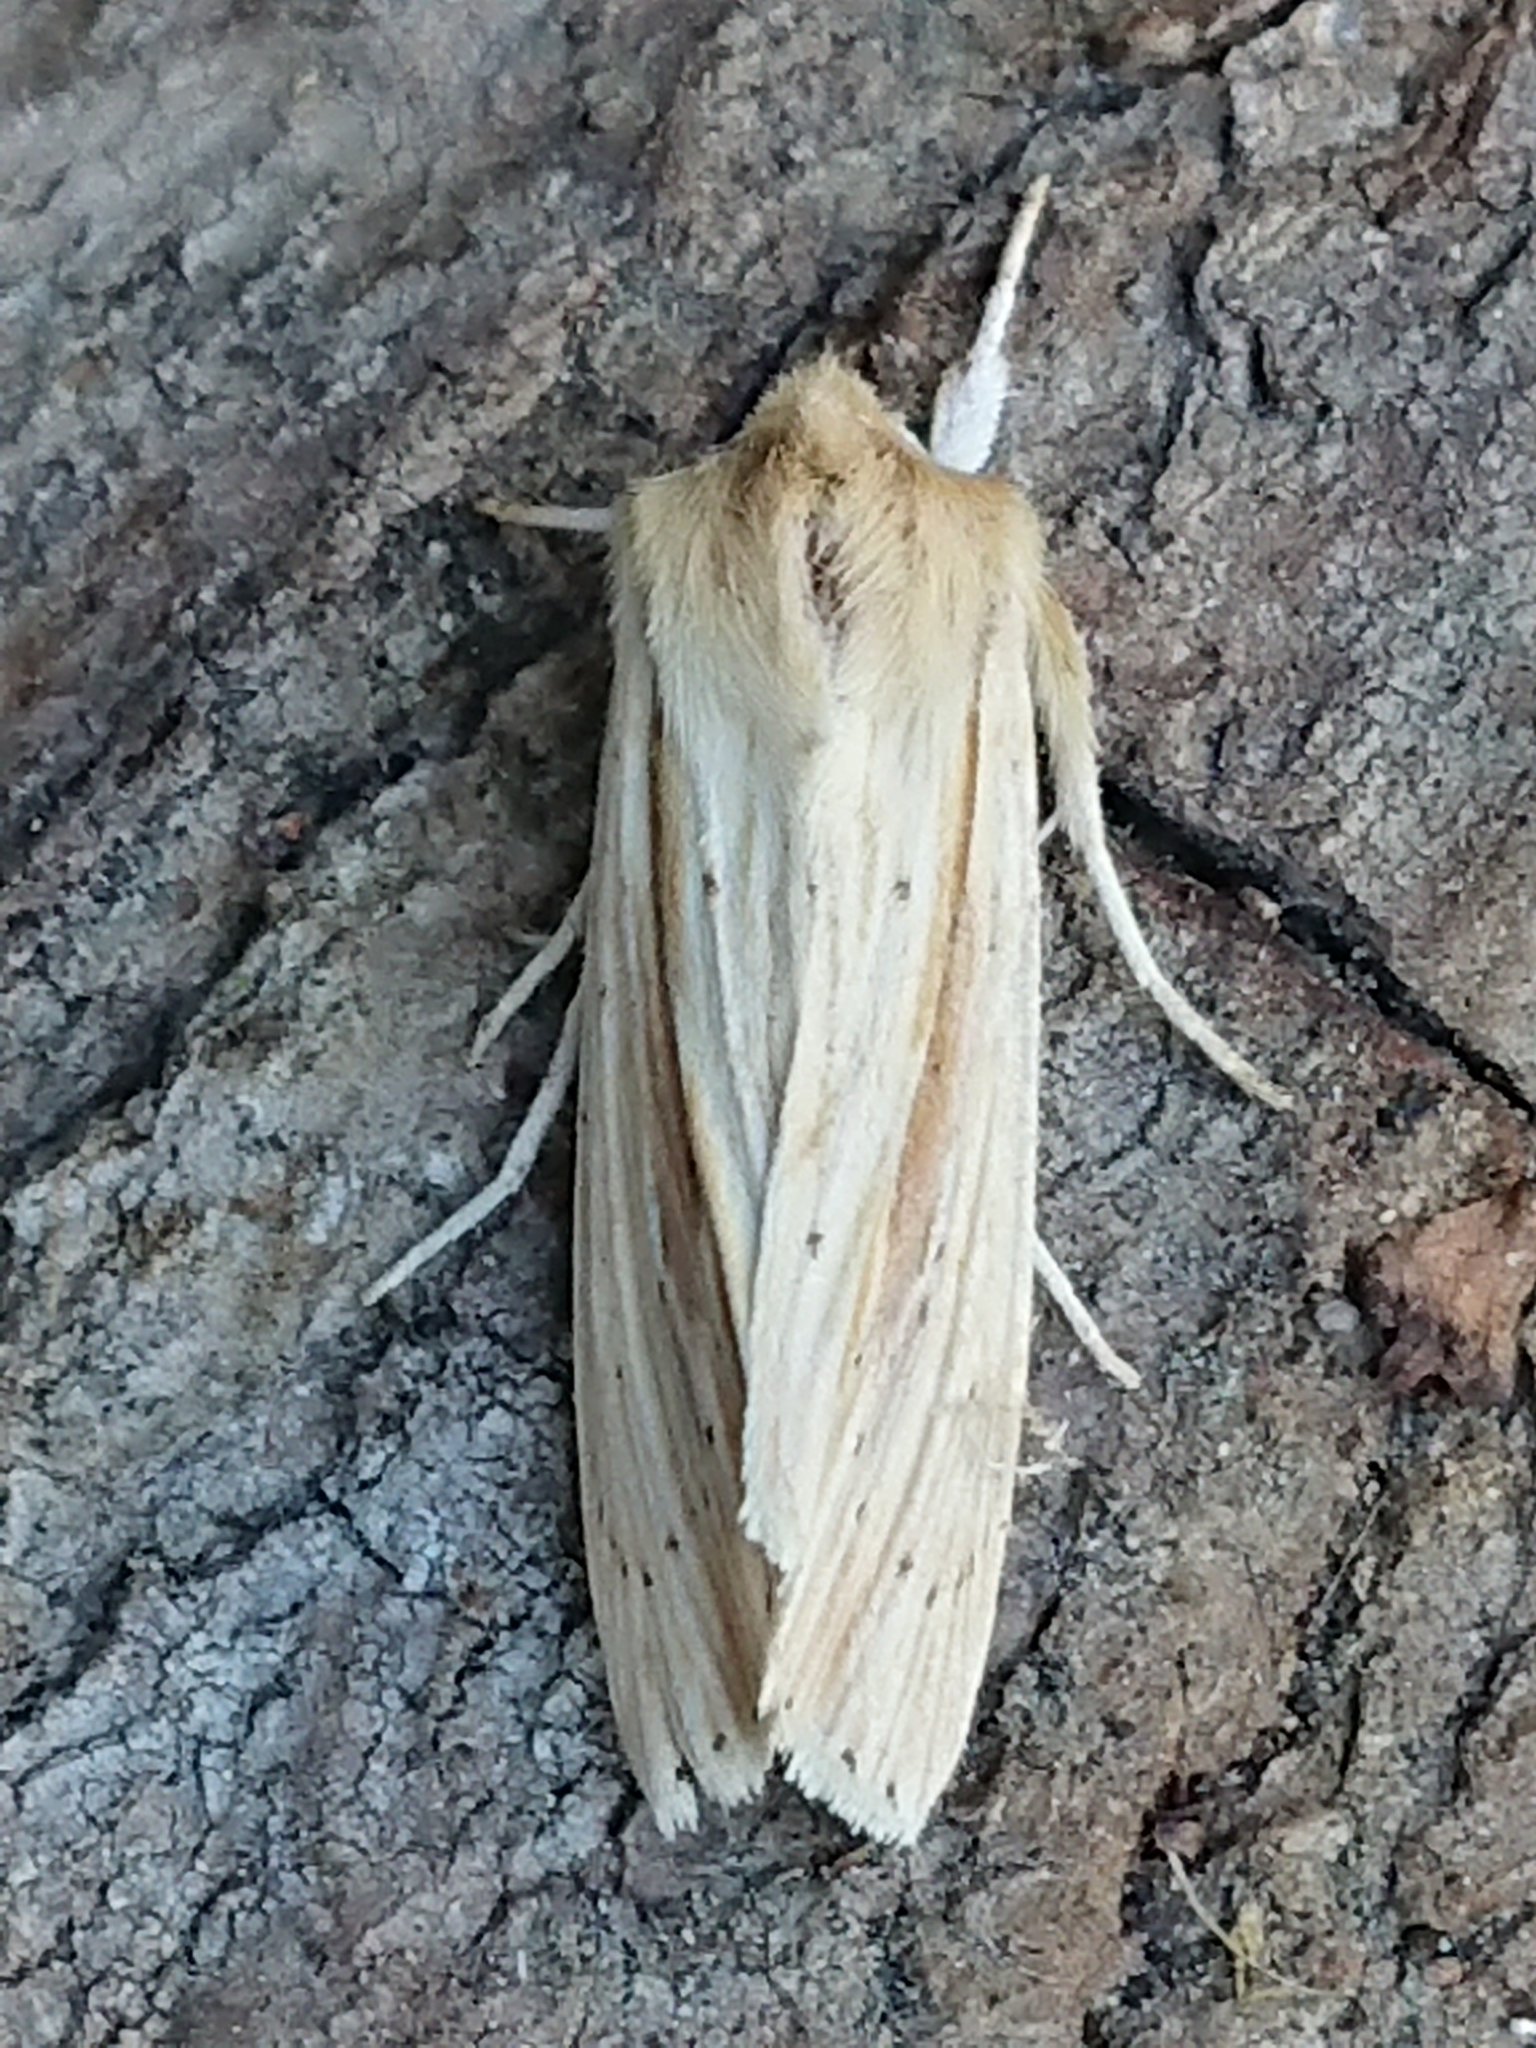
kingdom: Animalia
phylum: Arthropoda
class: Insecta
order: Lepidoptera
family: Noctuidae
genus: Ichneutica
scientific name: Ichneutica semivittata
